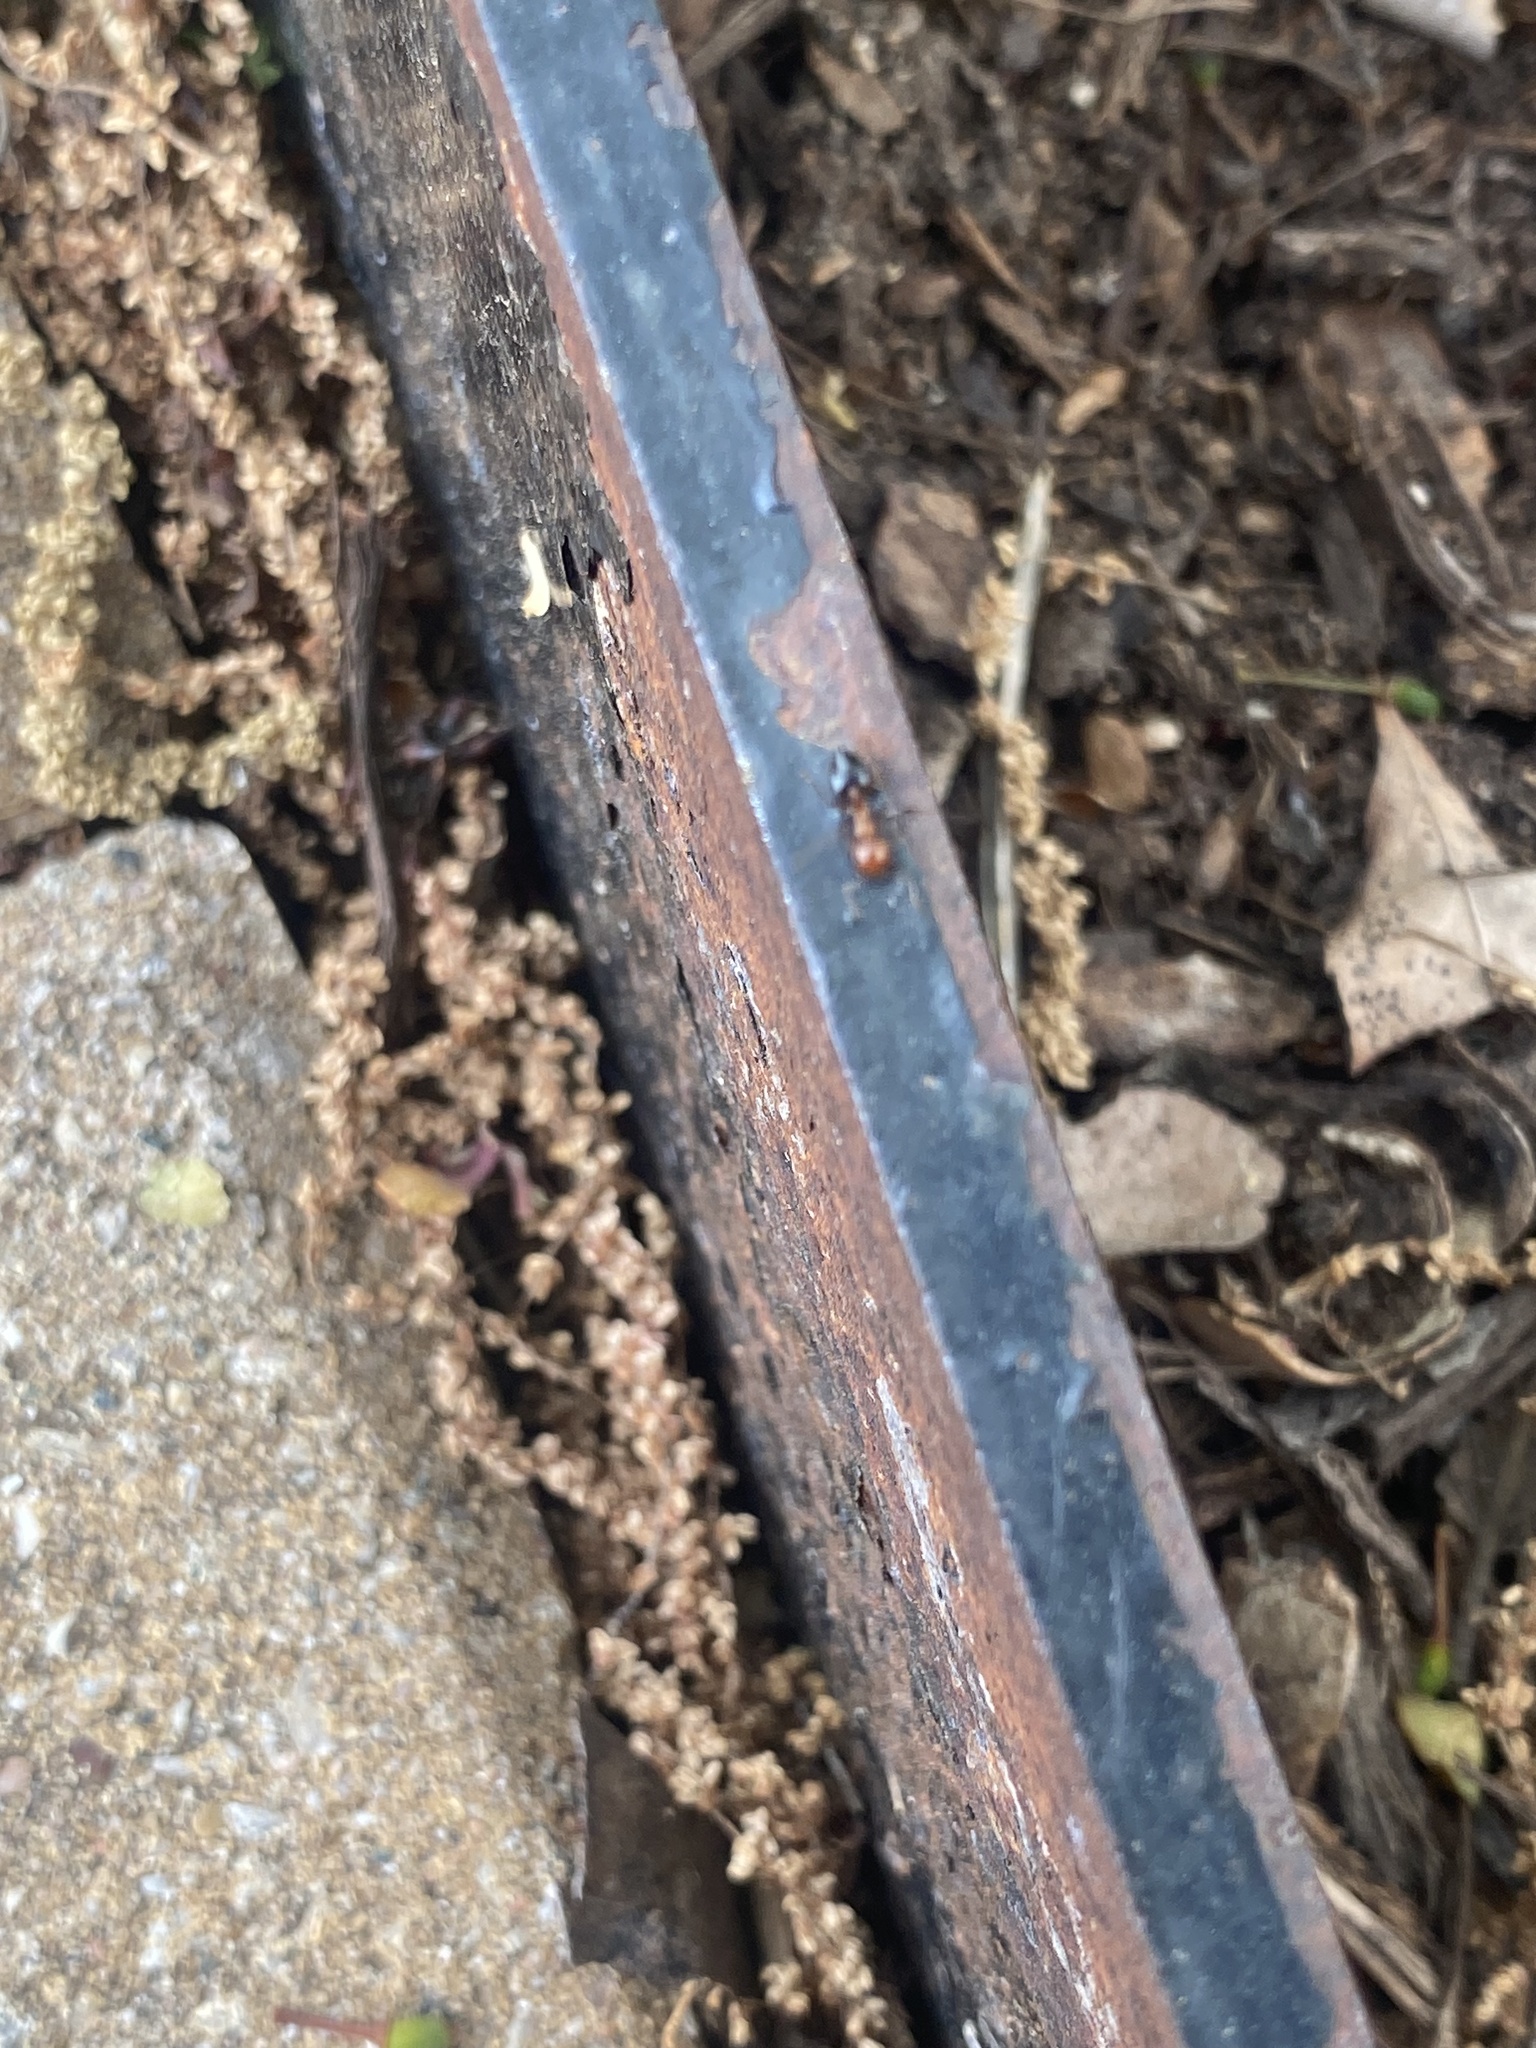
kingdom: Animalia
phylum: Arthropoda
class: Insecta
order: Hymenoptera
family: Formicidae
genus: Crematogaster
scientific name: Crematogaster laeviuscula
